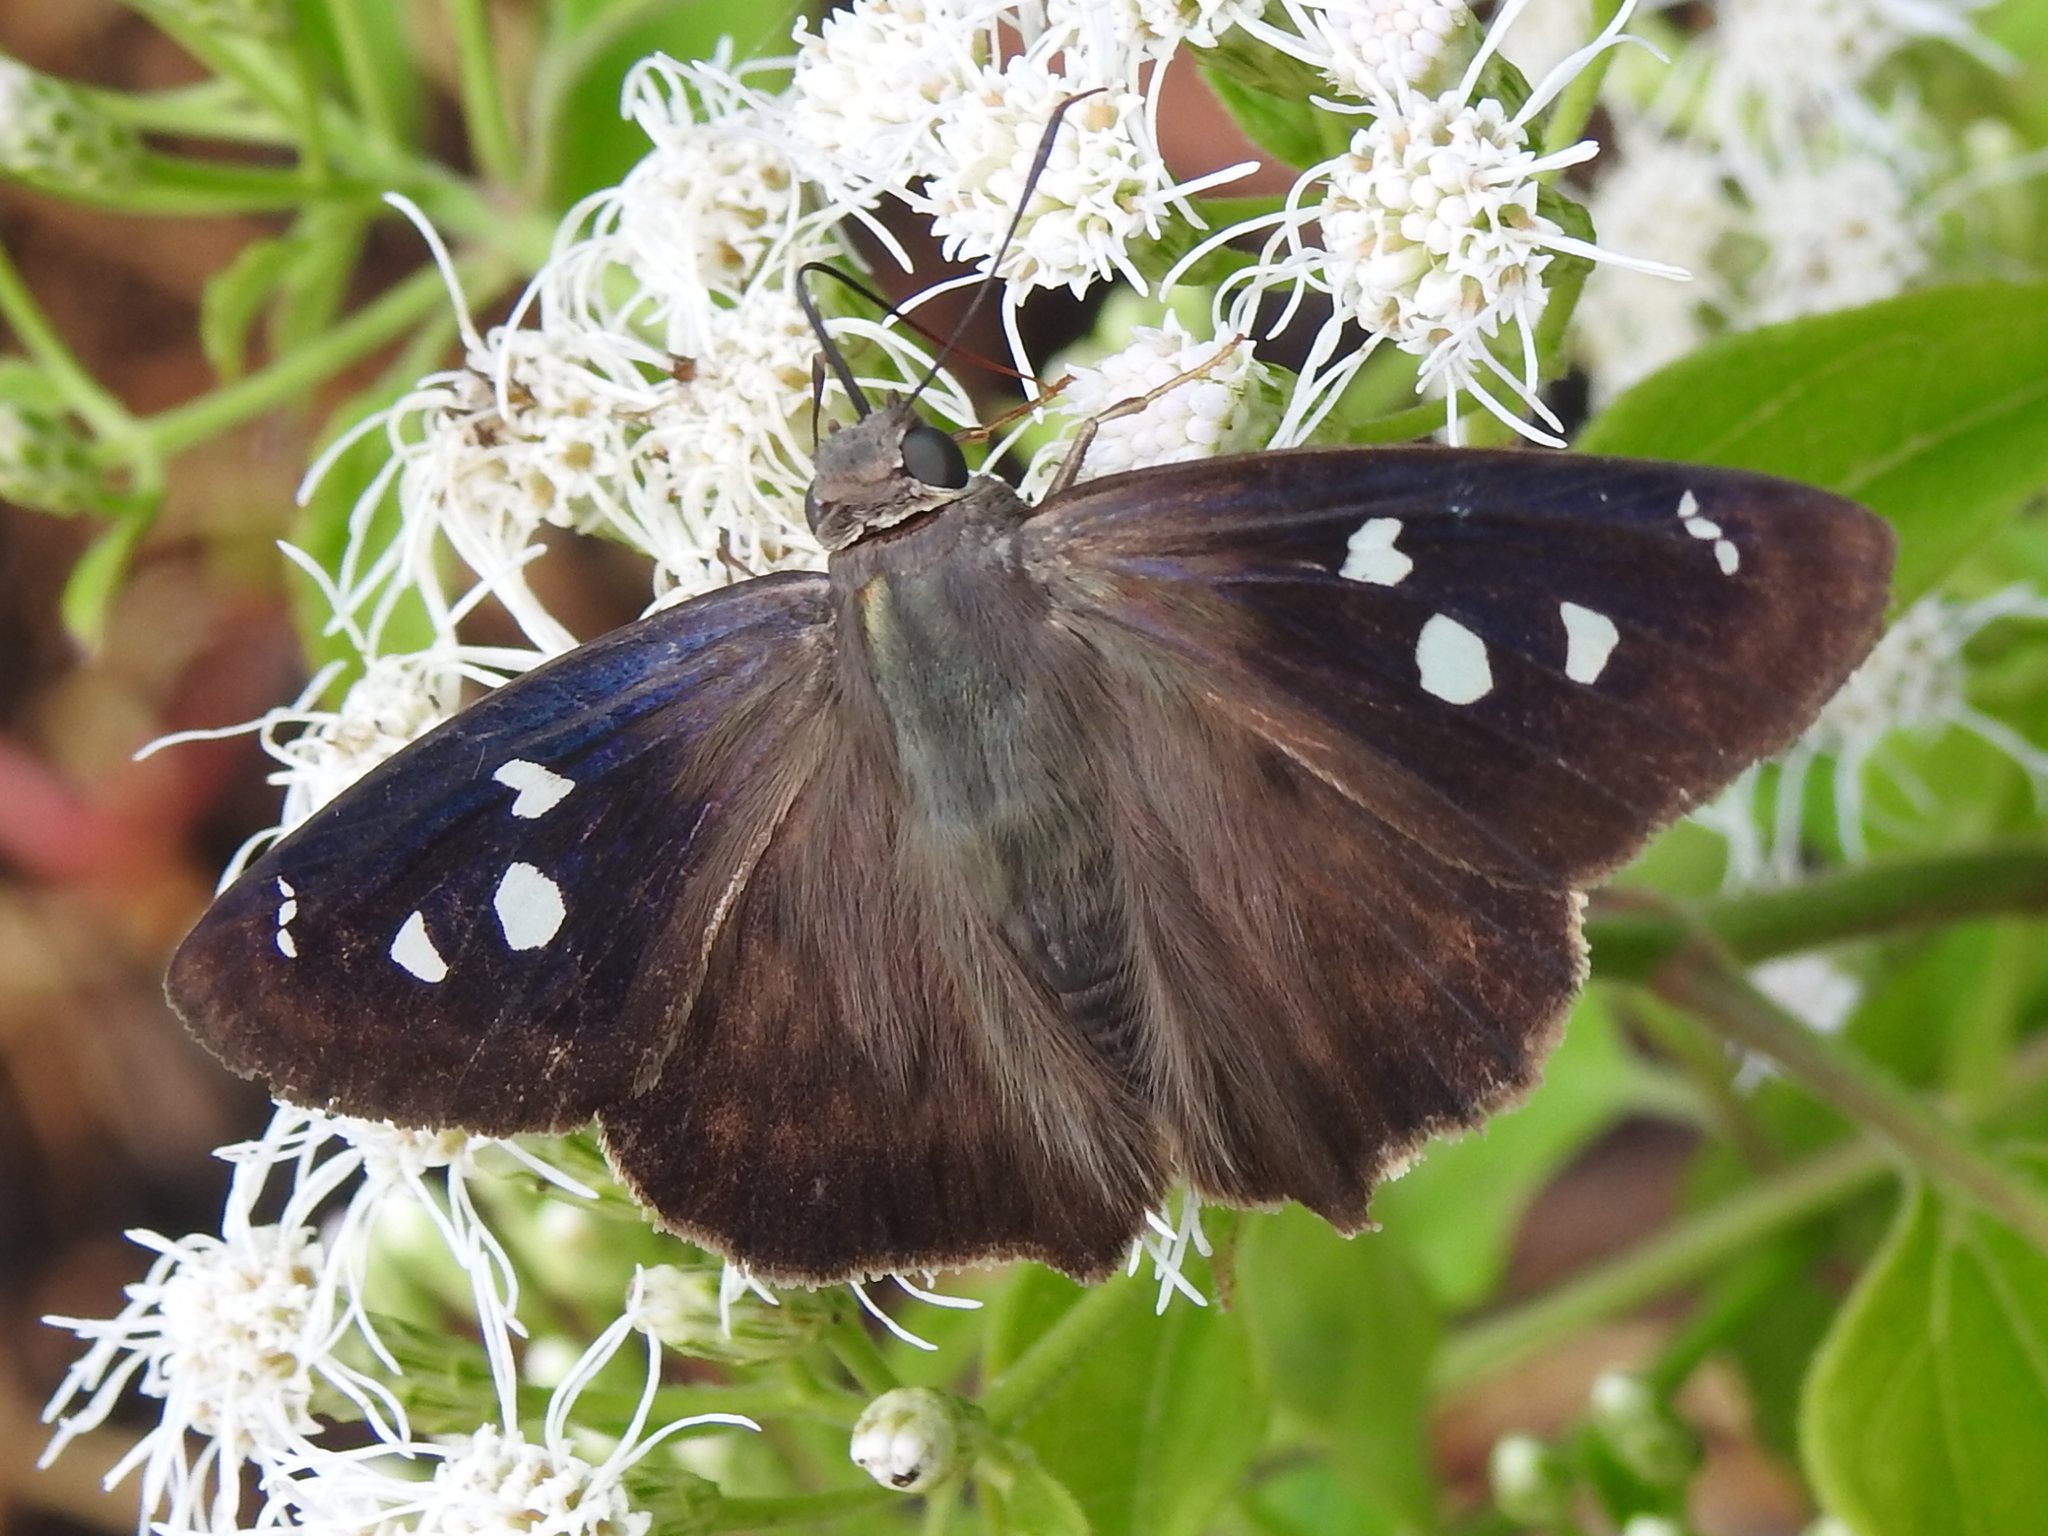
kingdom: Animalia
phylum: Arthropoda
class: Insecta
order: Lepidoptera
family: Hesperiidae
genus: Polygonus
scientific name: Polygonus leo
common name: Hammoch skipper
